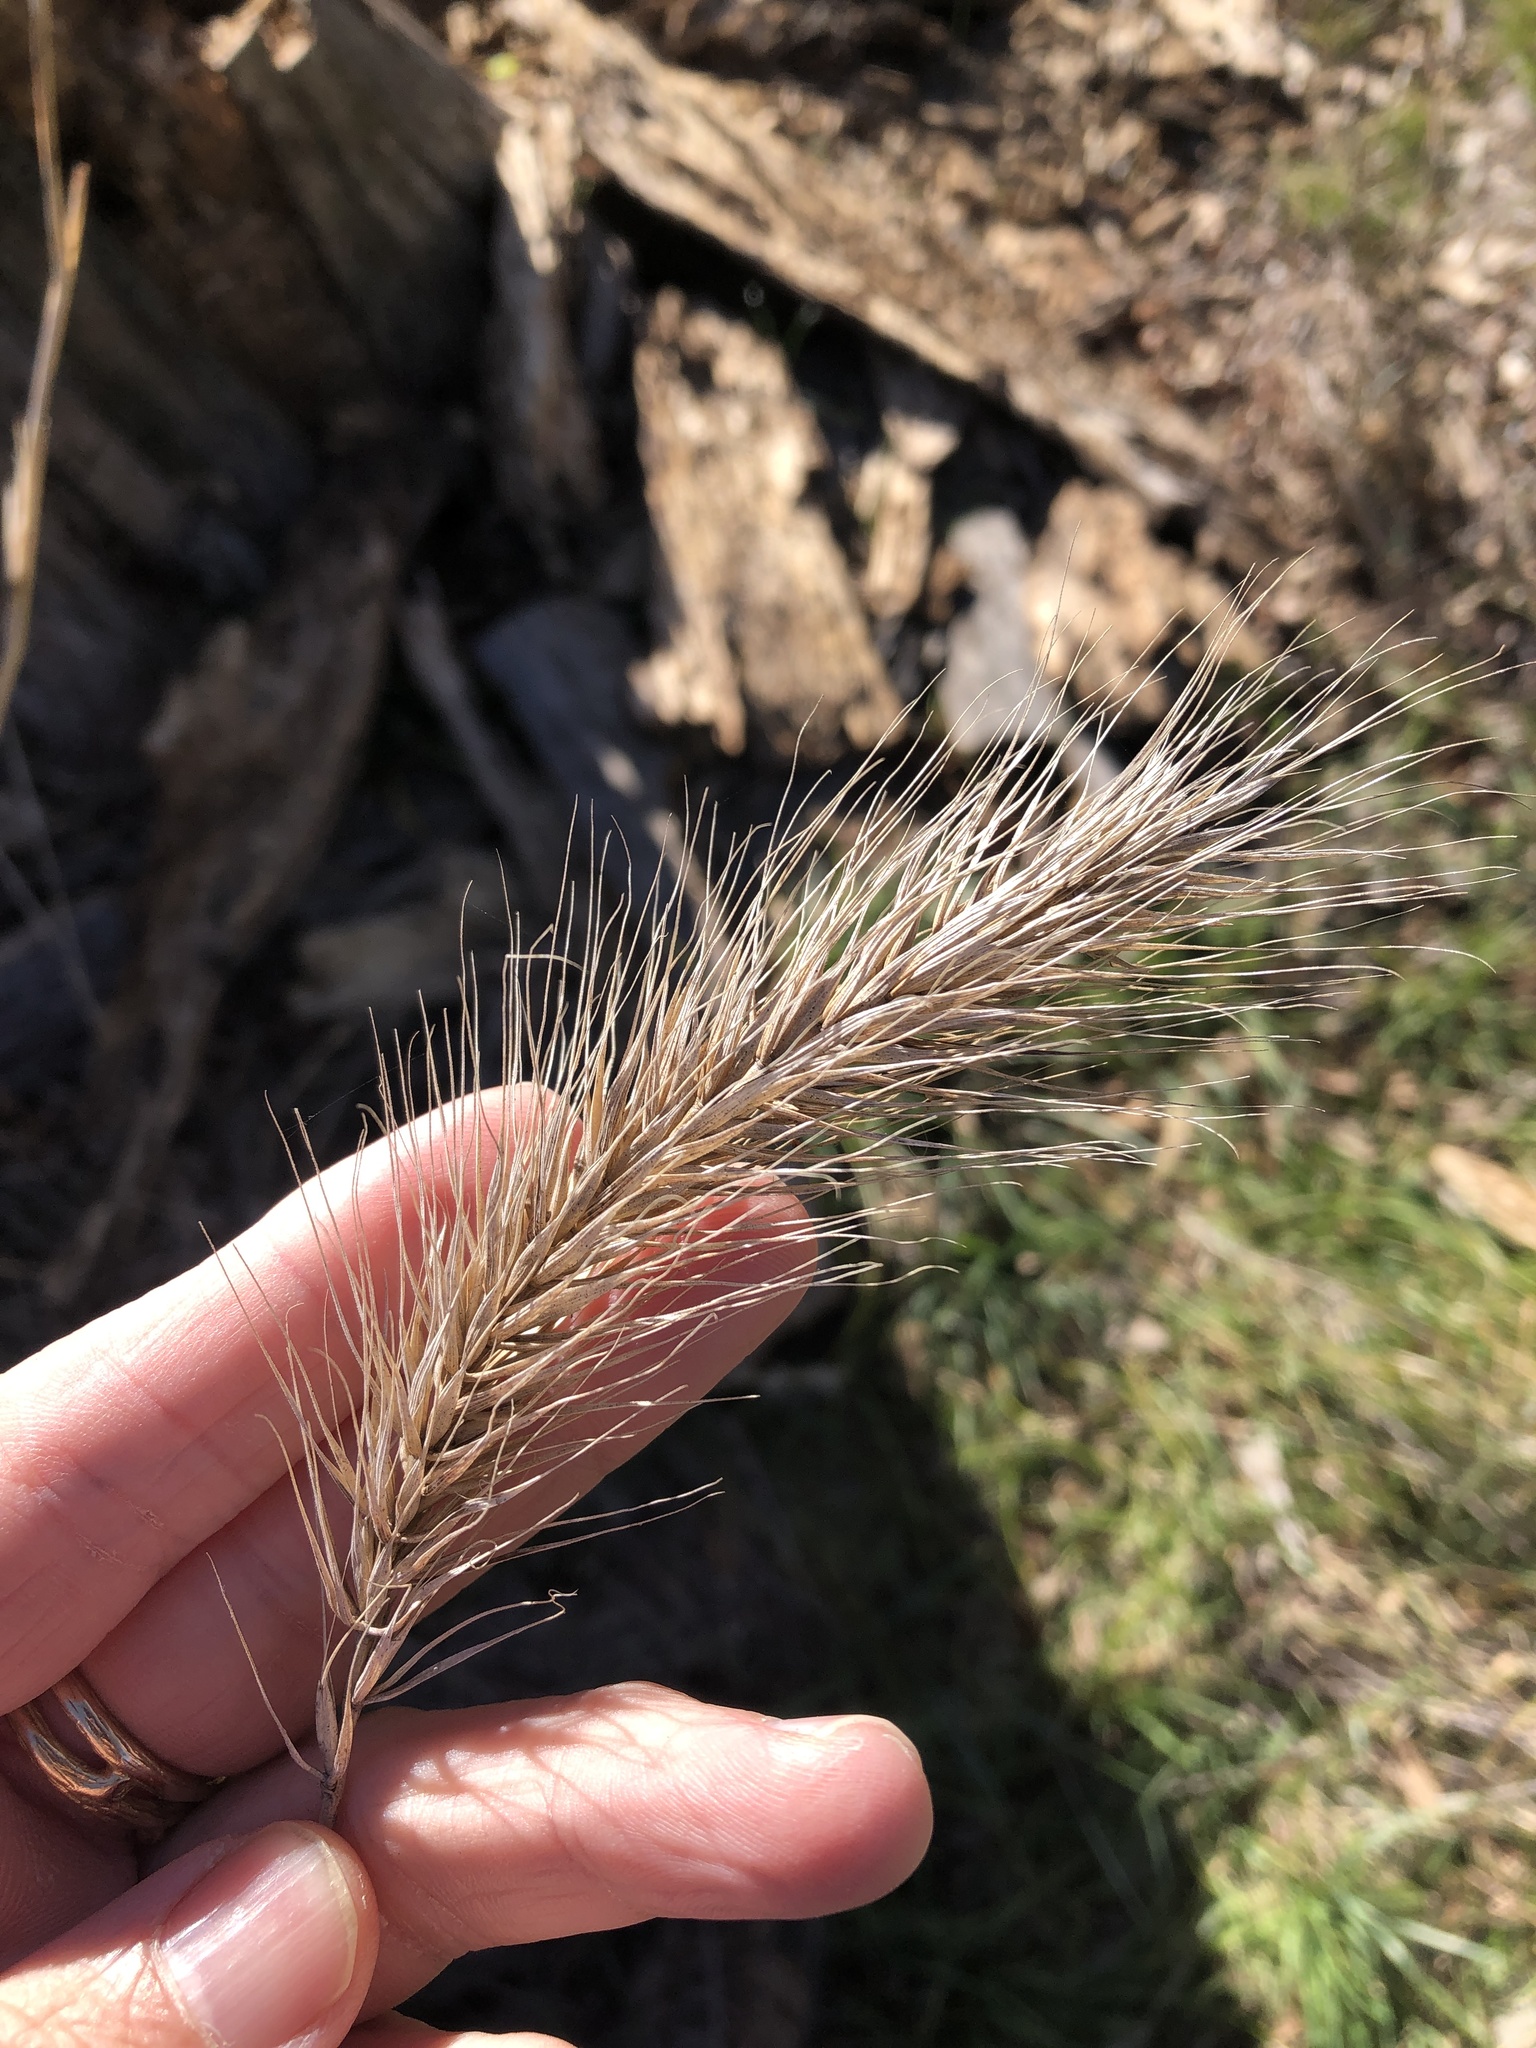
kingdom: Plantae
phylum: Tracheophyta
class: Liliopsida
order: Poales
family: Poaceae
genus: Elymus
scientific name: Elymus canadensis
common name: Canada wild rye
